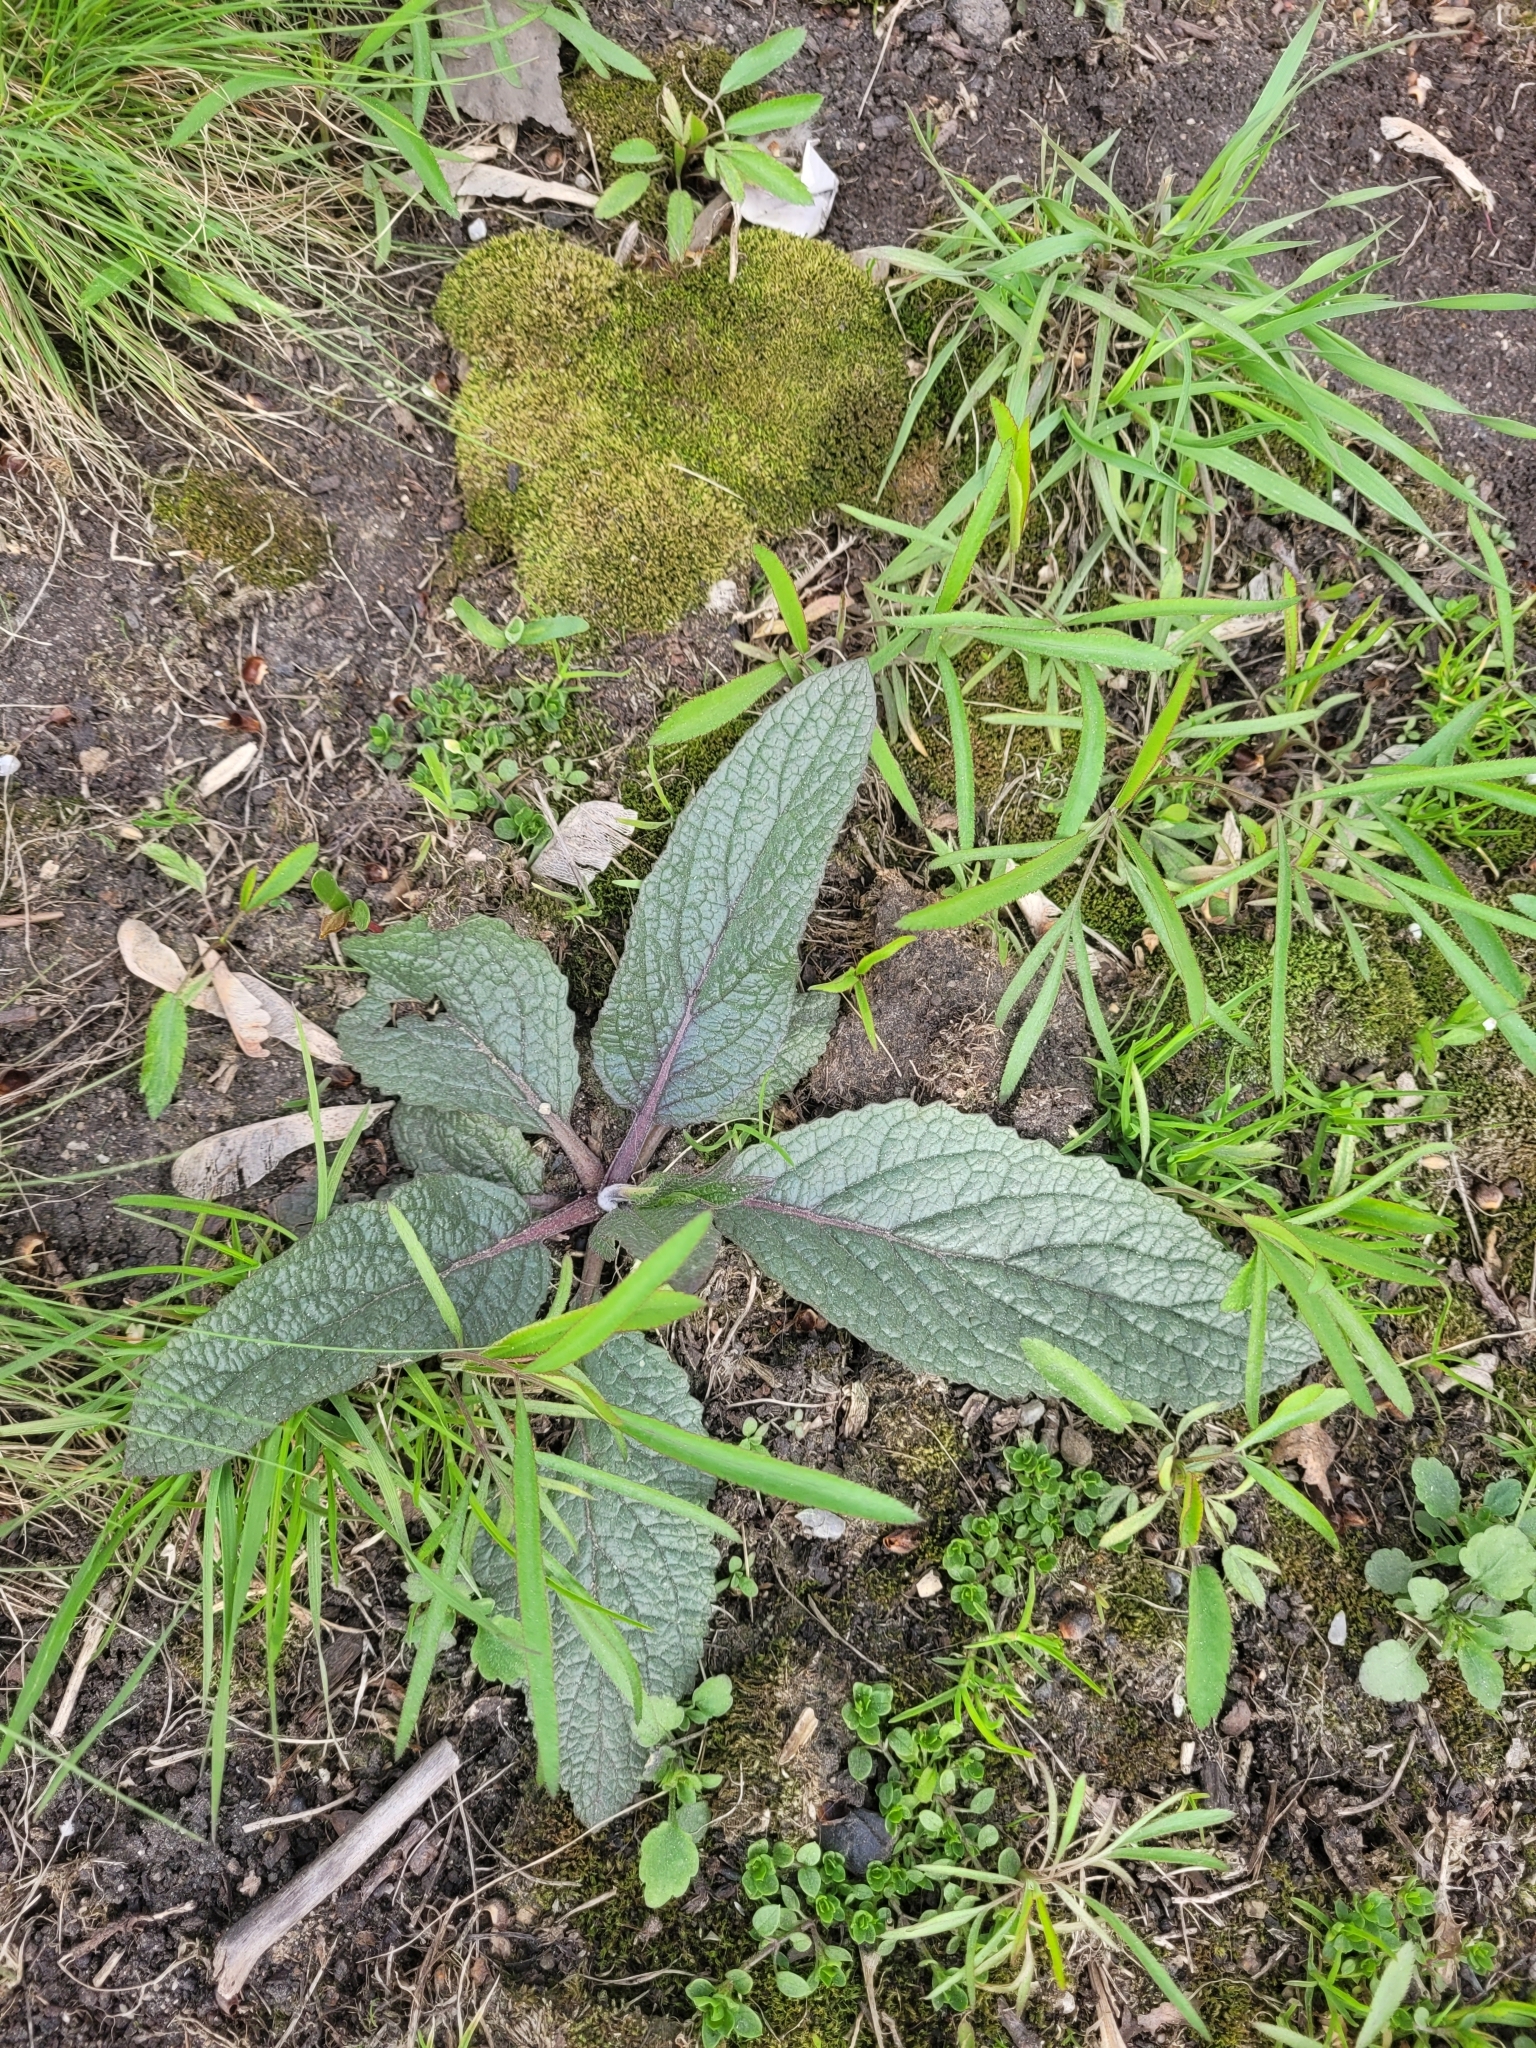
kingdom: Plantae
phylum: Tracheophyta
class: Magnoliopsida
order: Lamiales
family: Scrophulariaceae
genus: Verbascum
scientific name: Verbascum phoeniceum
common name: Purple mullein
